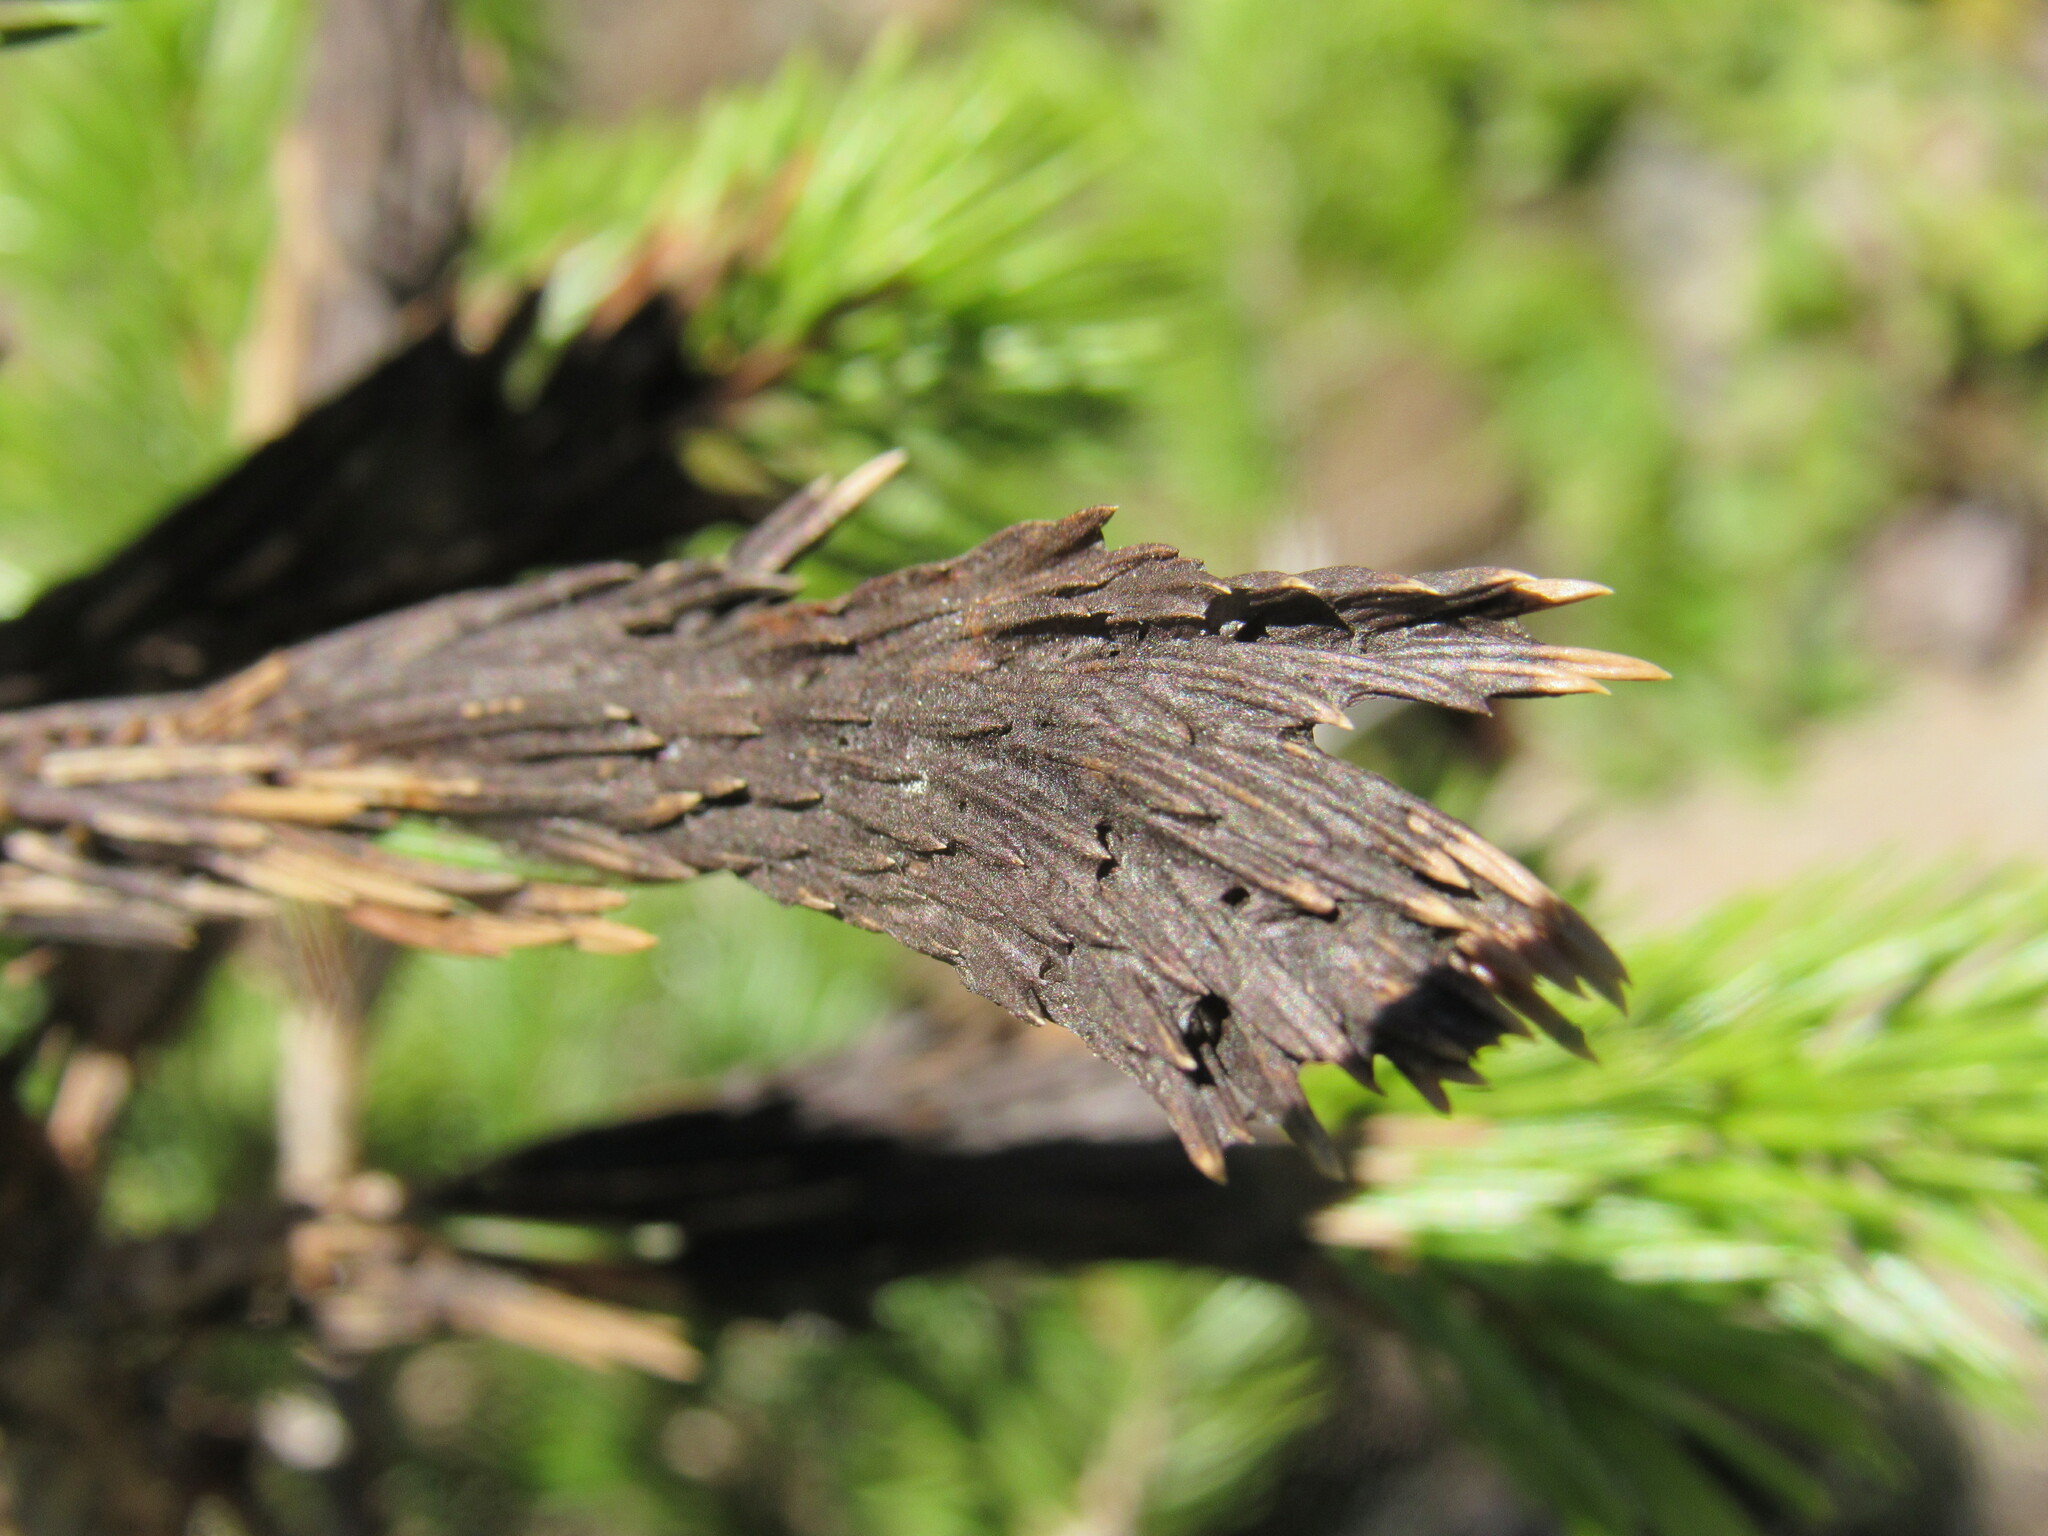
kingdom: Fungi
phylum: Ascomycota
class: Dothideomycetes
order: Pleosporales
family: Melanommataceae
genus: Herpotrichia
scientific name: Herpotrichia pinetorum
